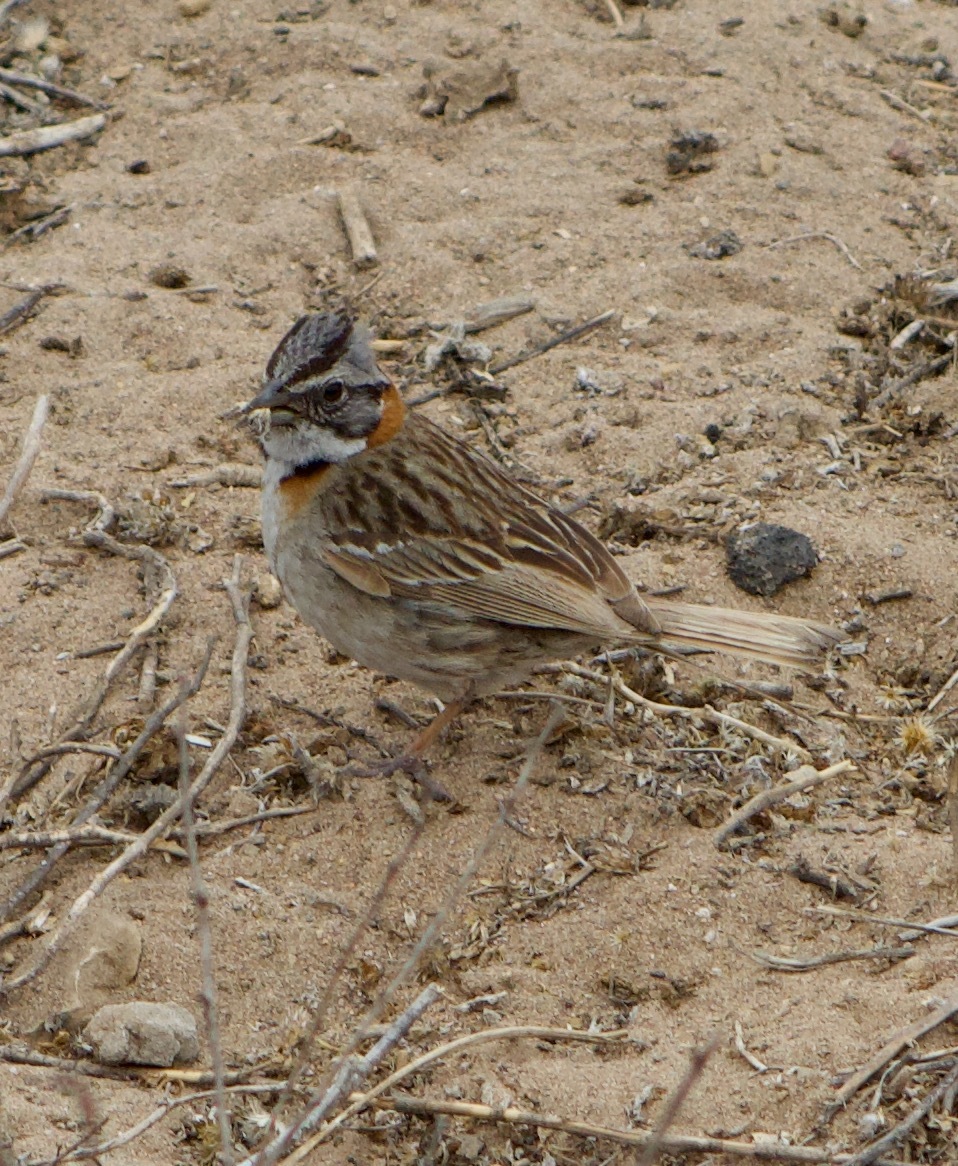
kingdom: Animalia
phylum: Chordata
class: Aves
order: Passeriformes
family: Passerellidae
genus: Zonotrichia
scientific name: Zonotrichia capensis
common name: Rufous-collared sparrow
